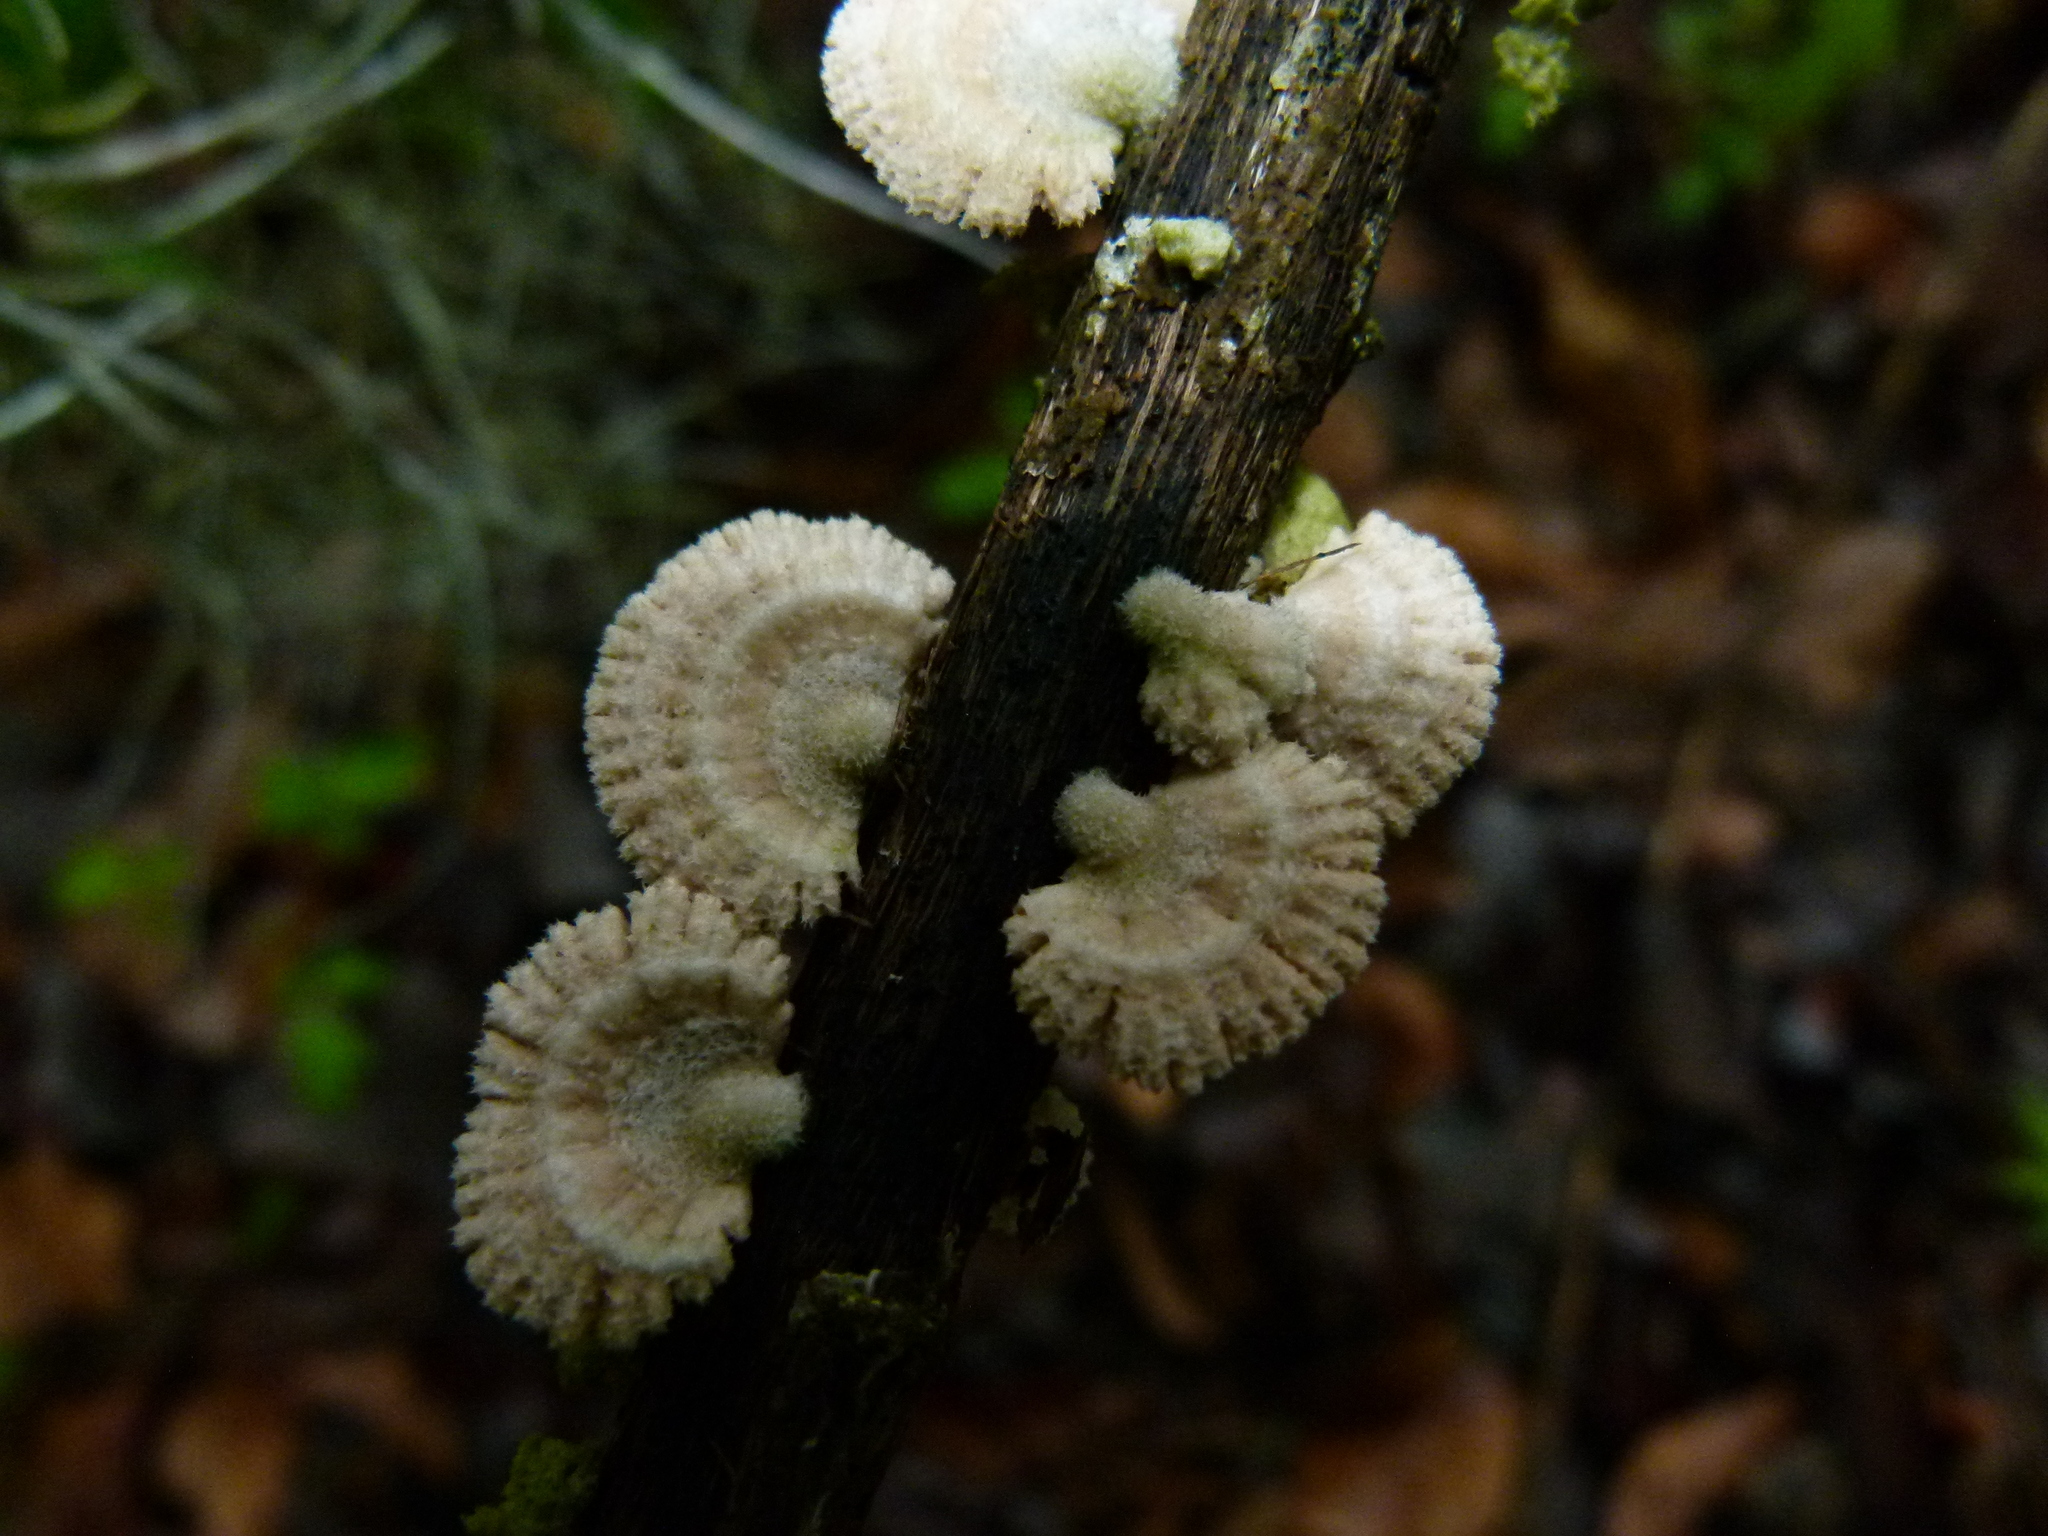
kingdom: Fungi
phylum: Basidiomycota
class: Agaricomycetes
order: Agaricales
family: Schizophyllaceae
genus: Schizophyllum
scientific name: Schizophyllum commune
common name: Common porecrust
